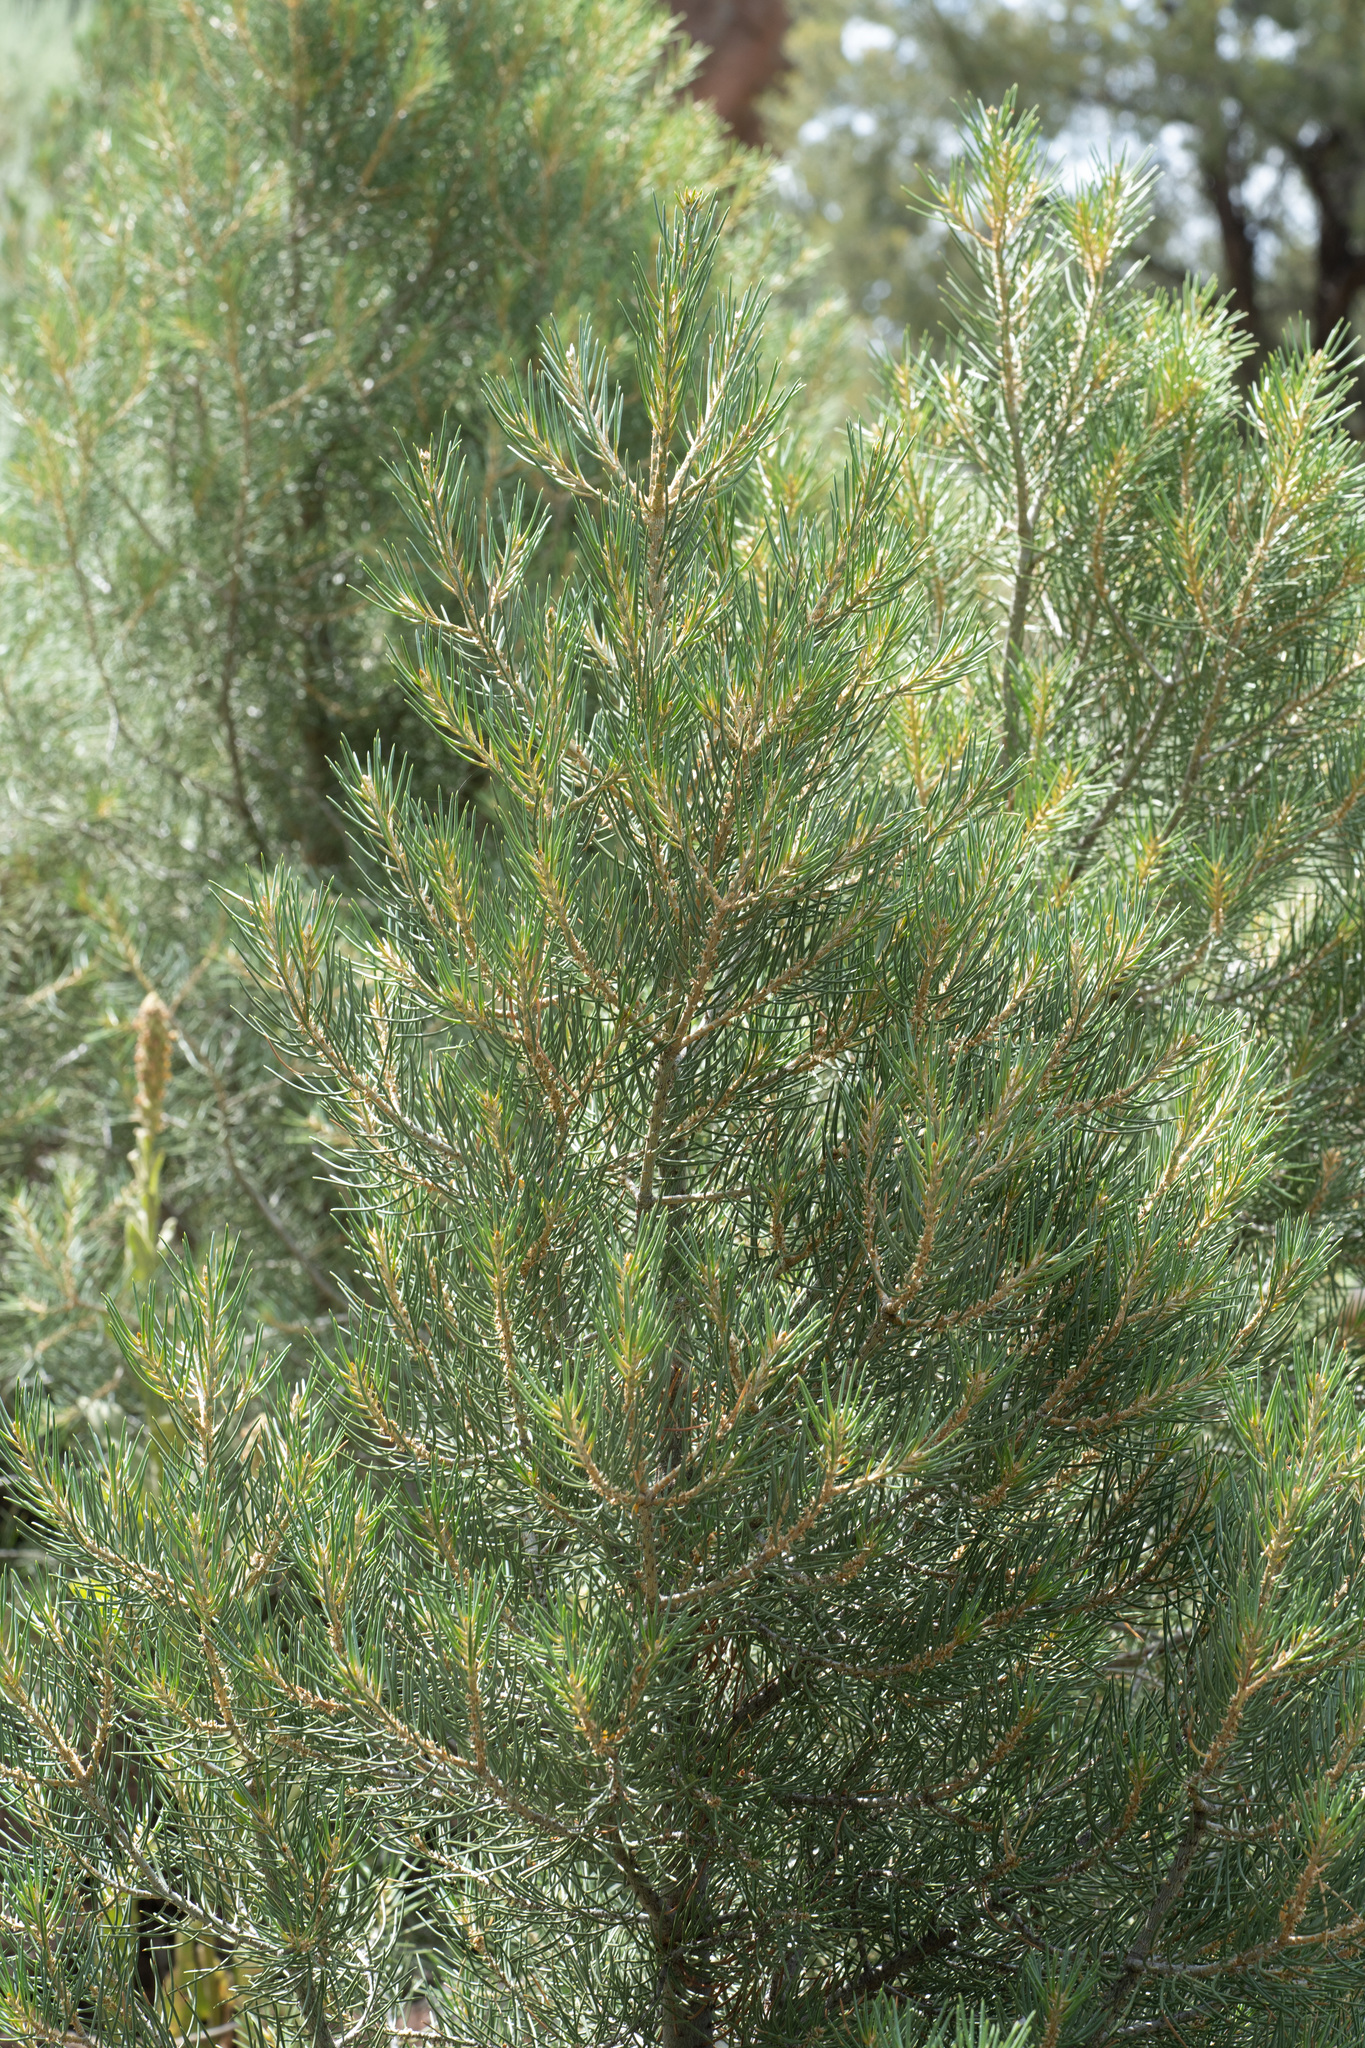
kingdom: Plantae
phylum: Tracheophyta
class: Pinopsida
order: Pinales
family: Pinaceae
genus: Pinus
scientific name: Pinus monophylla
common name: One-leaved nut pine
